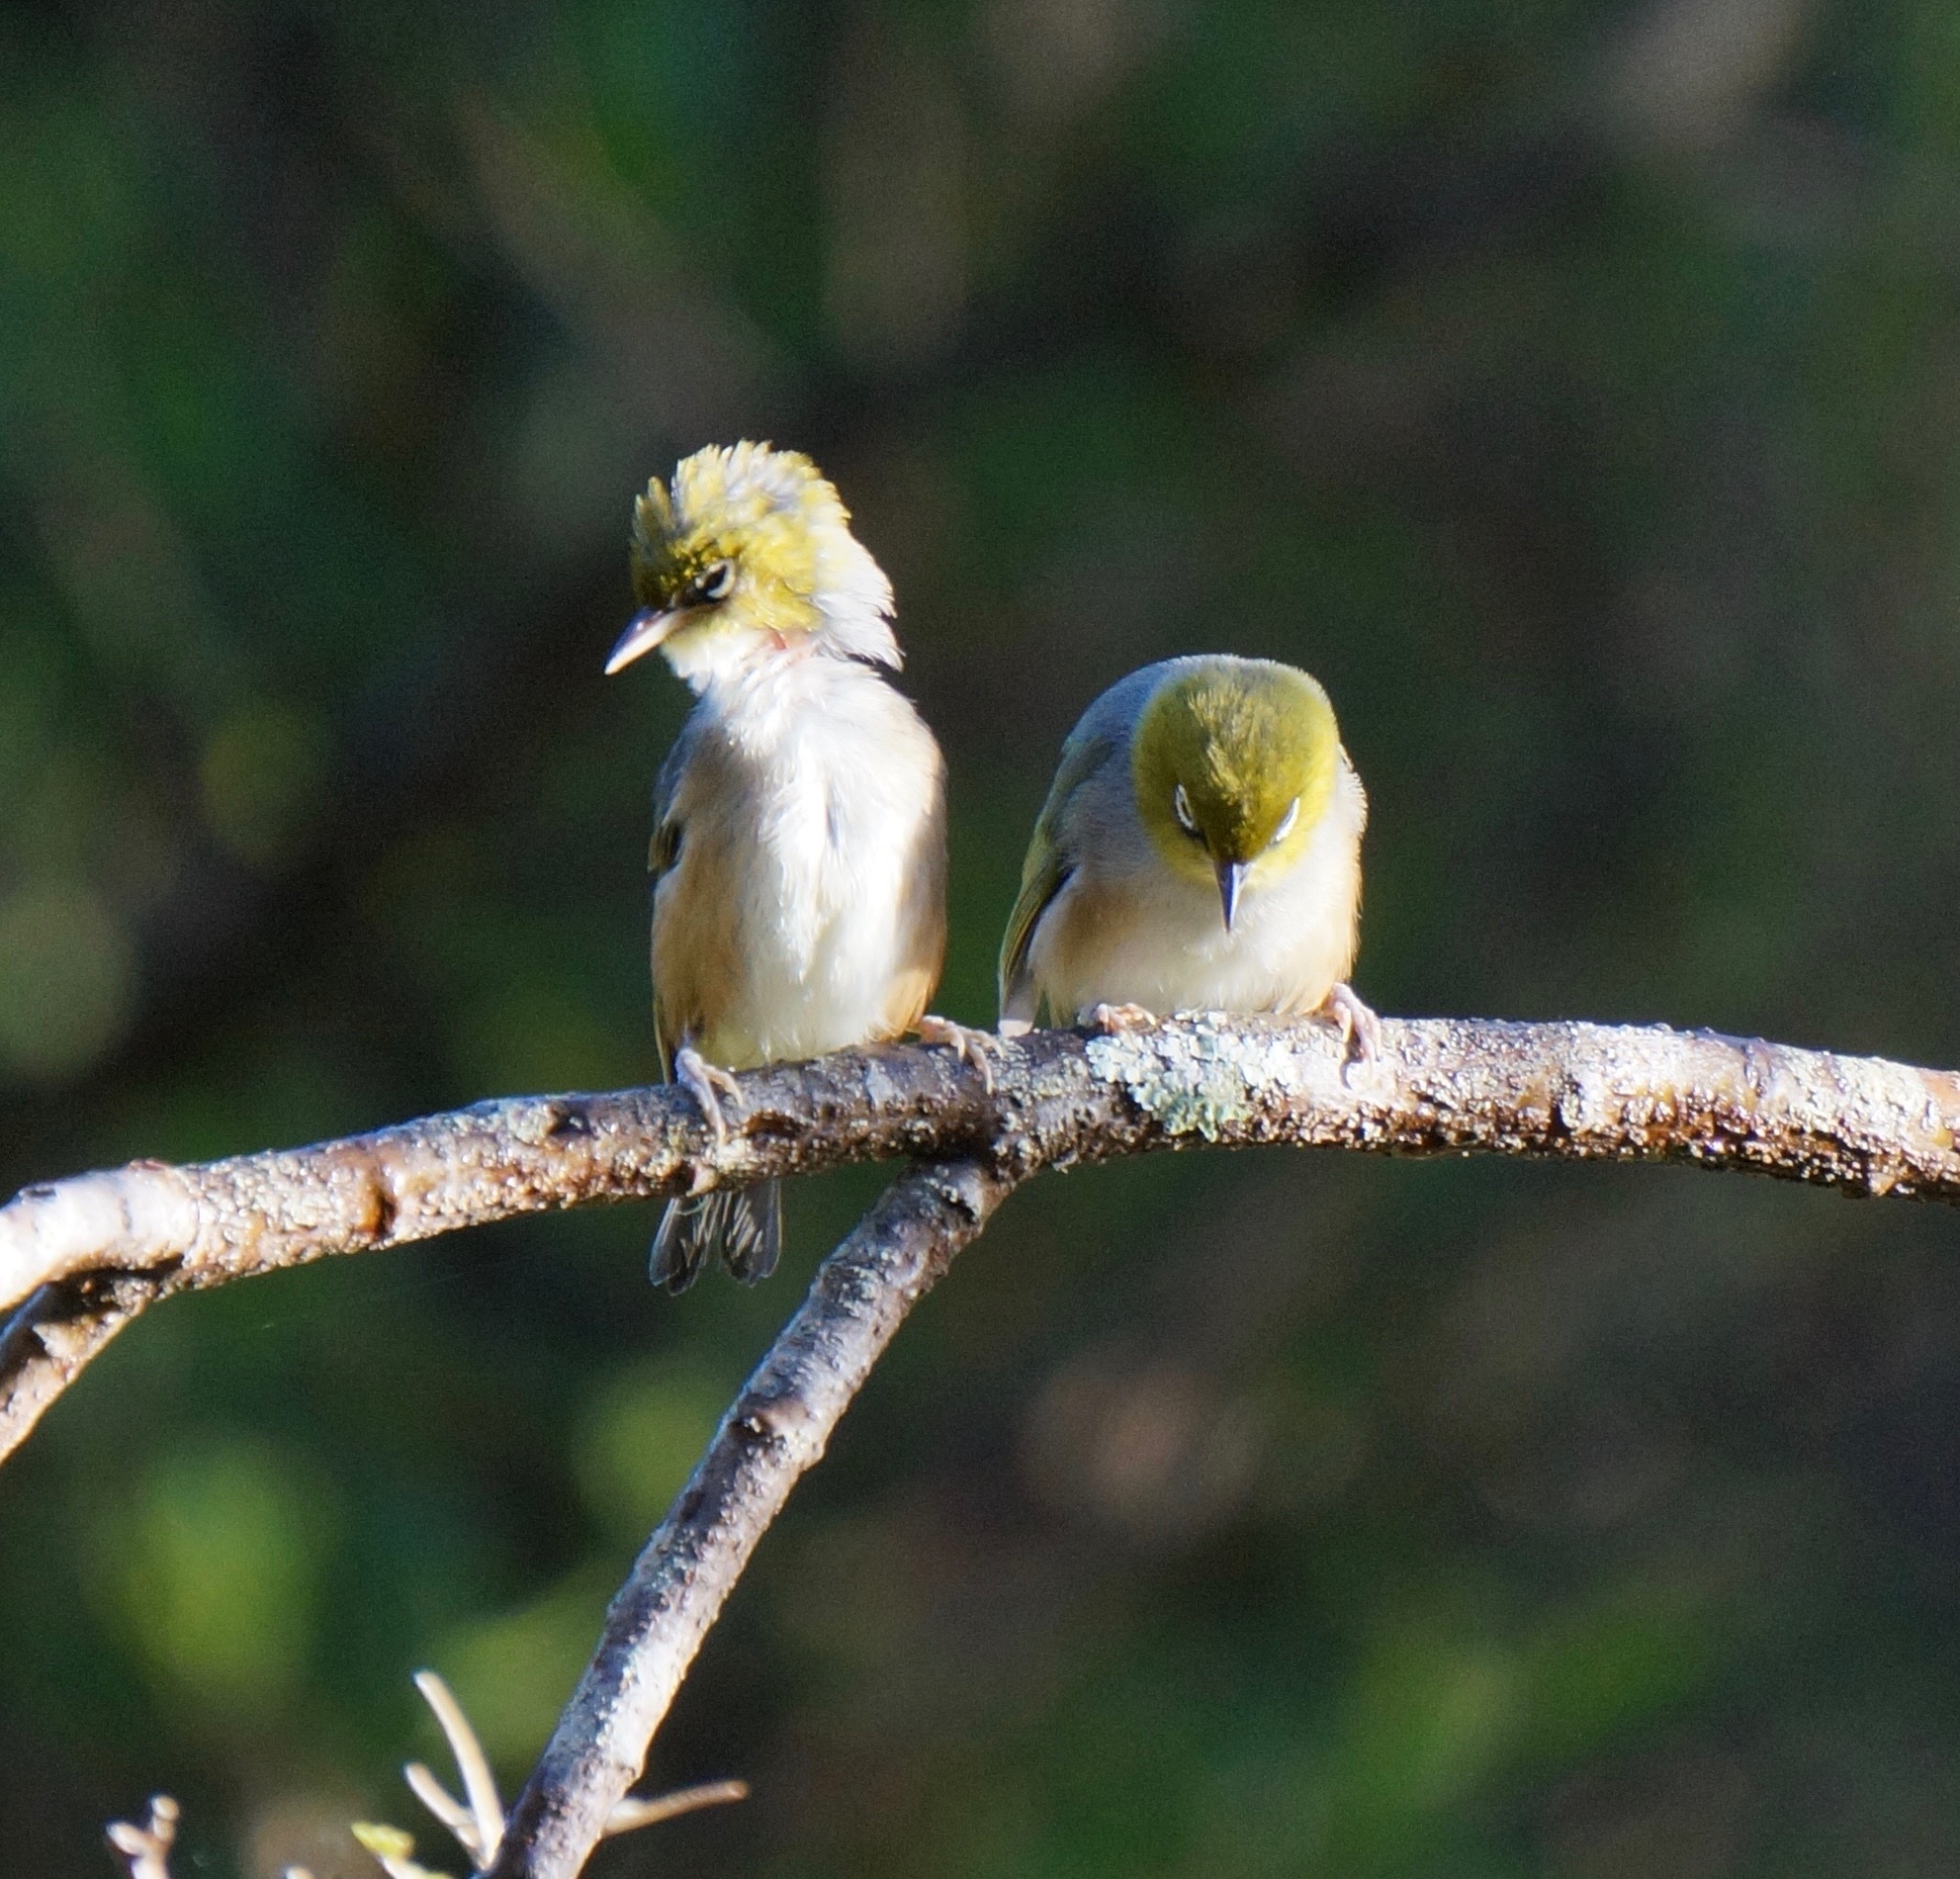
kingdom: Animalia
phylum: Chordata
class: Aves
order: Passeriformes
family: Zosteropidae
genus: Zosterops
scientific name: Zosterops lateralis
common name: Silvereye
